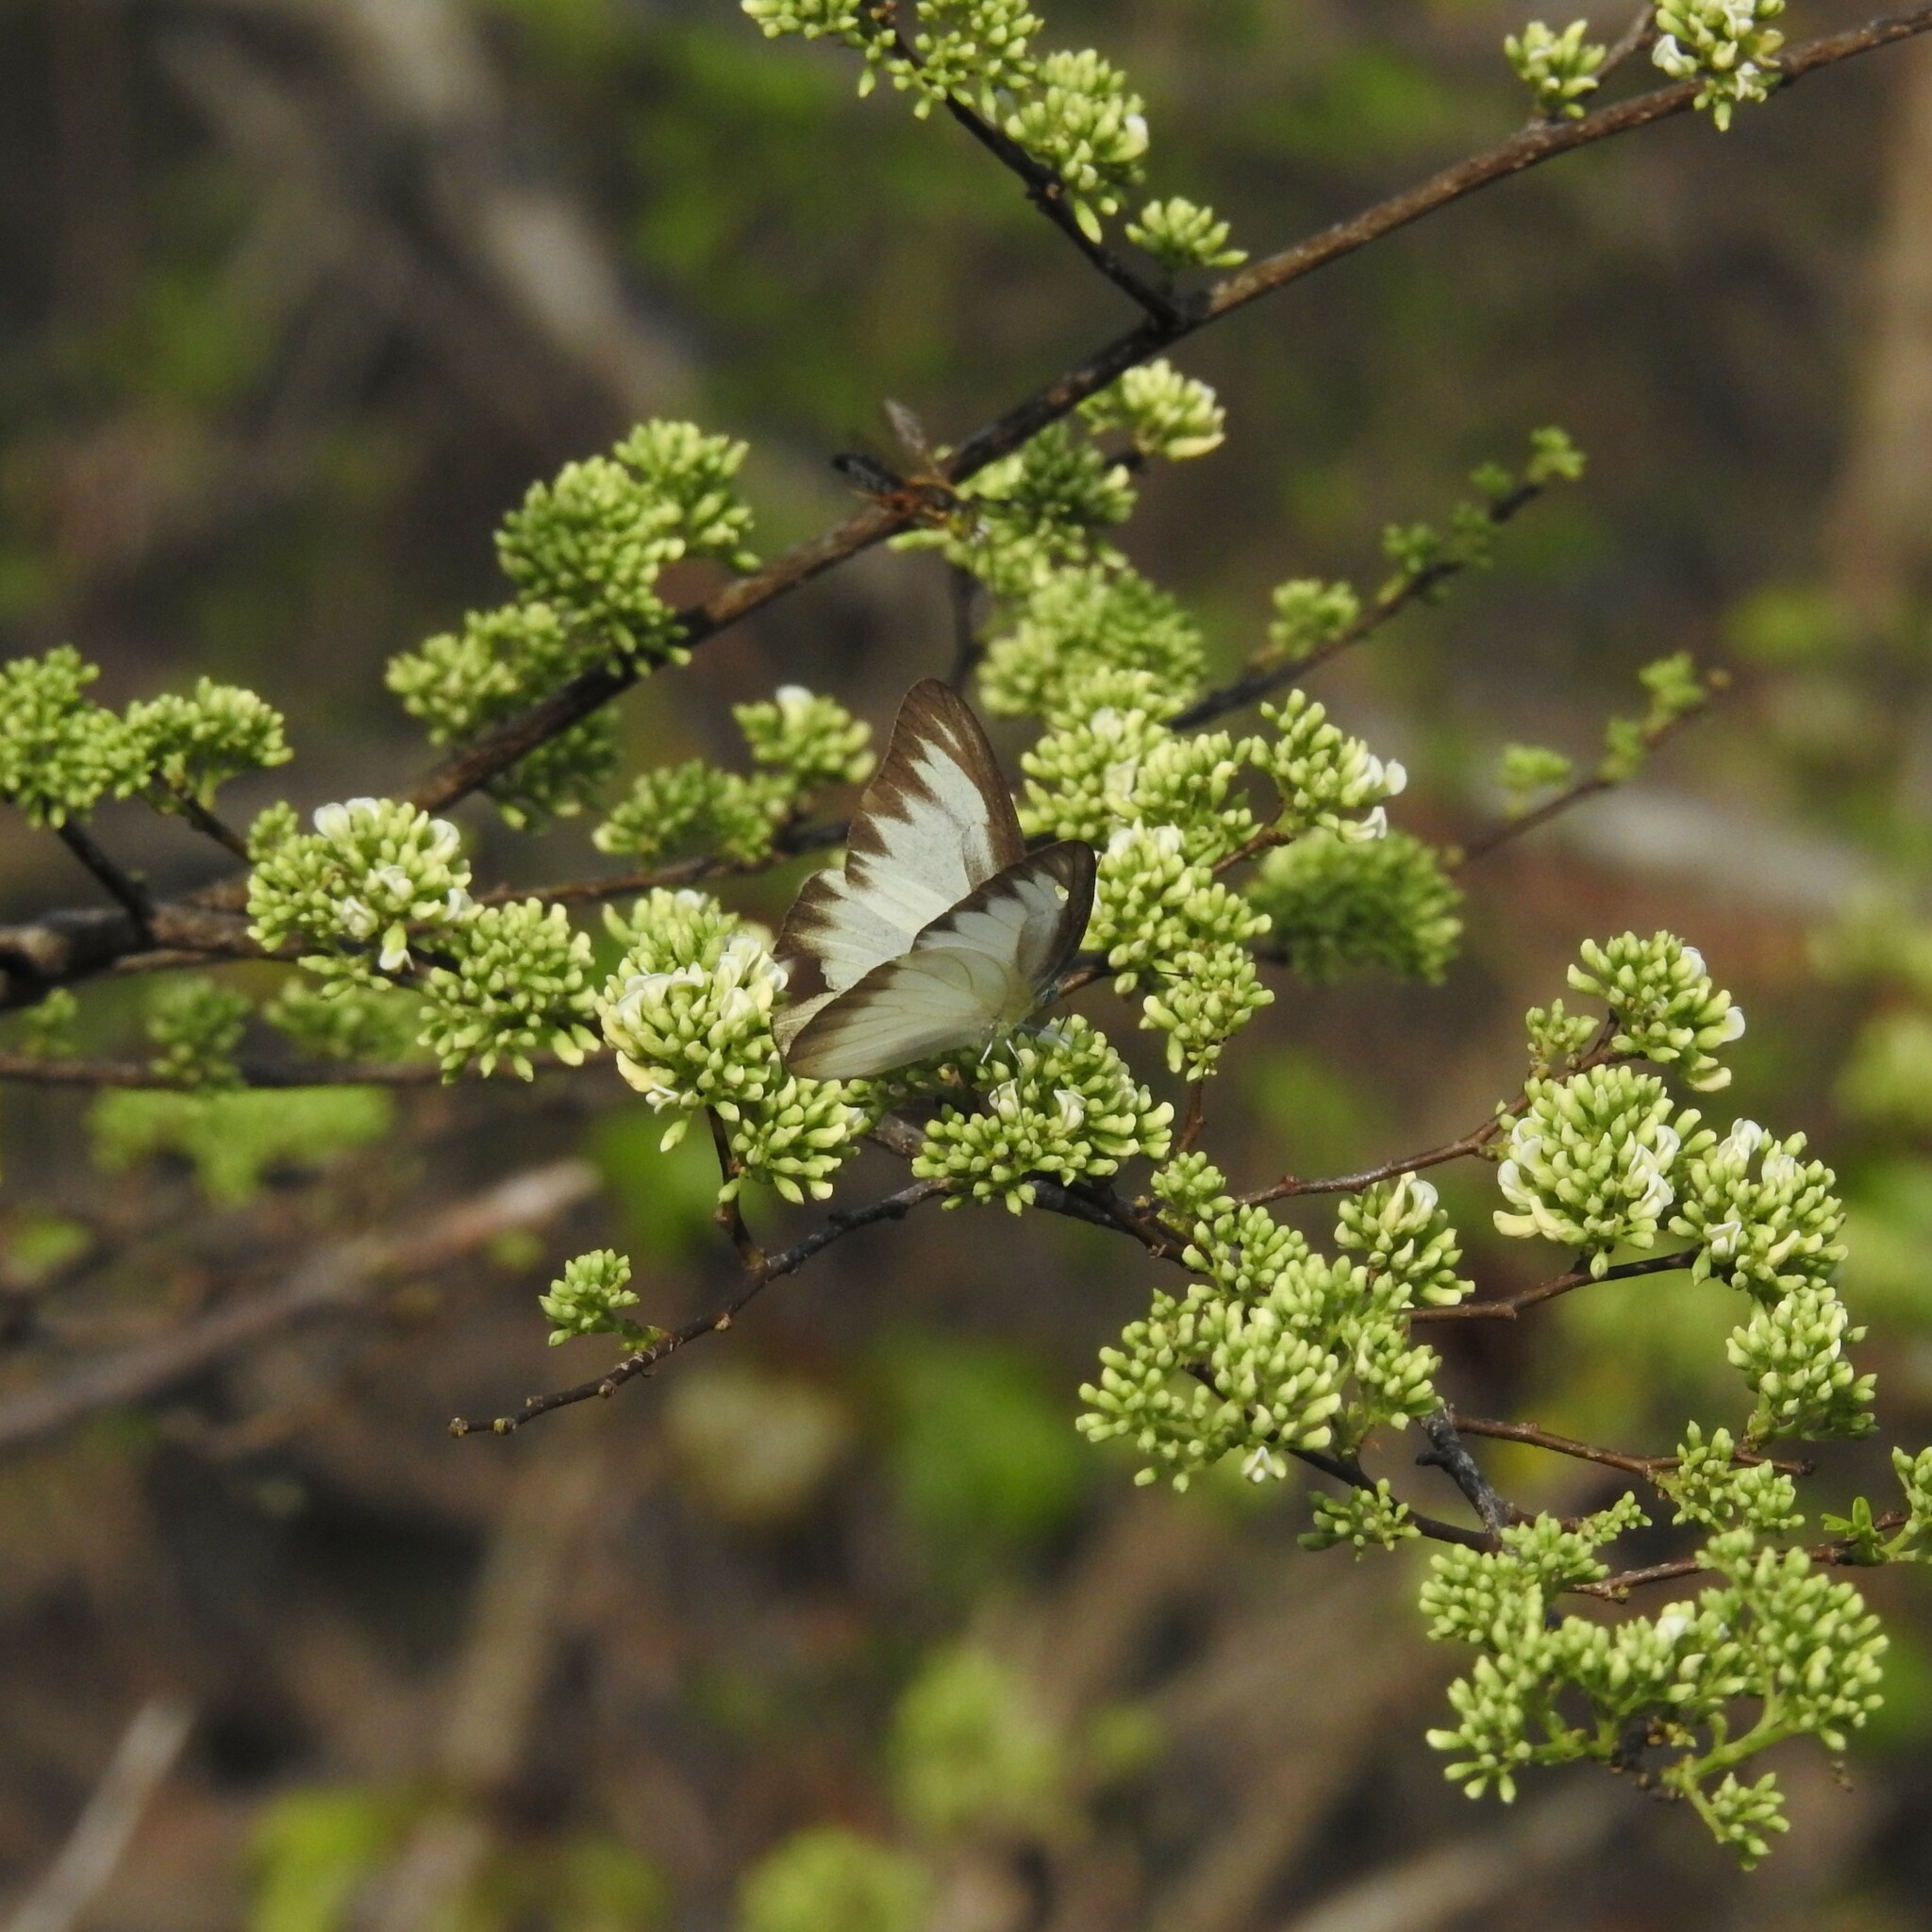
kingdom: Animalia
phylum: Arthropoda
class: Insecta
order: Lepidoptera
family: Pieridae
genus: Appias
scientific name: Appias lyncida
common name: Chocolate albatross
